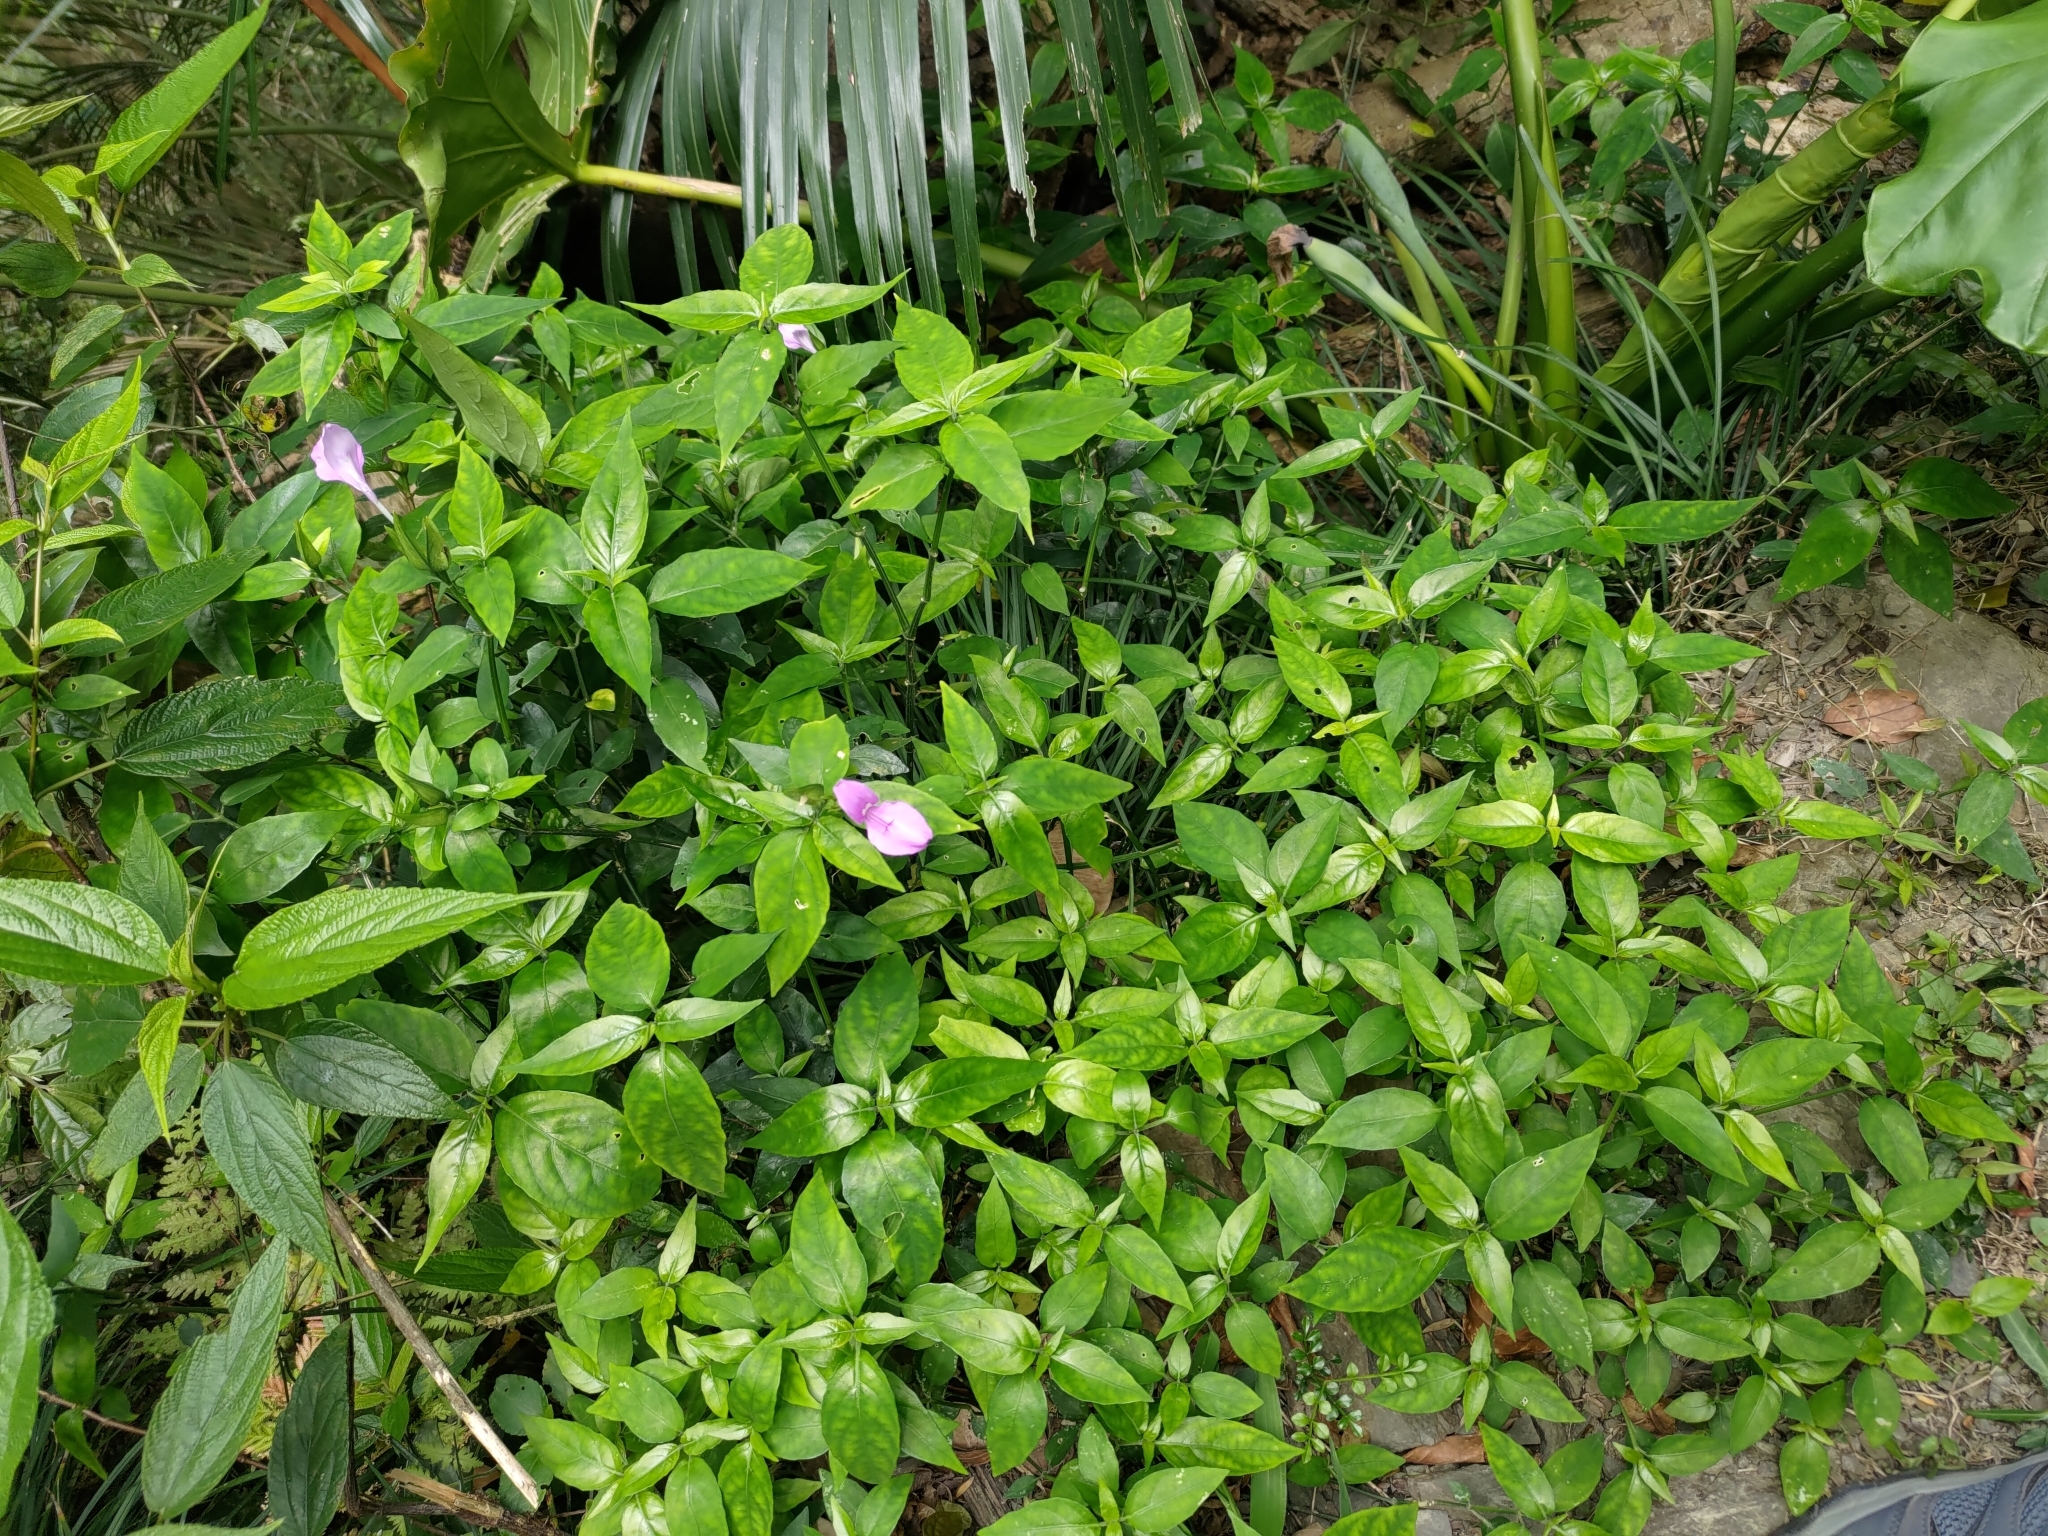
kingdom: Plantae
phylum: Tracheophyta
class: Magnoliopsida
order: Lamiales
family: Acanthaceae
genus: Dicliptera
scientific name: Dicliptera tinctoria
